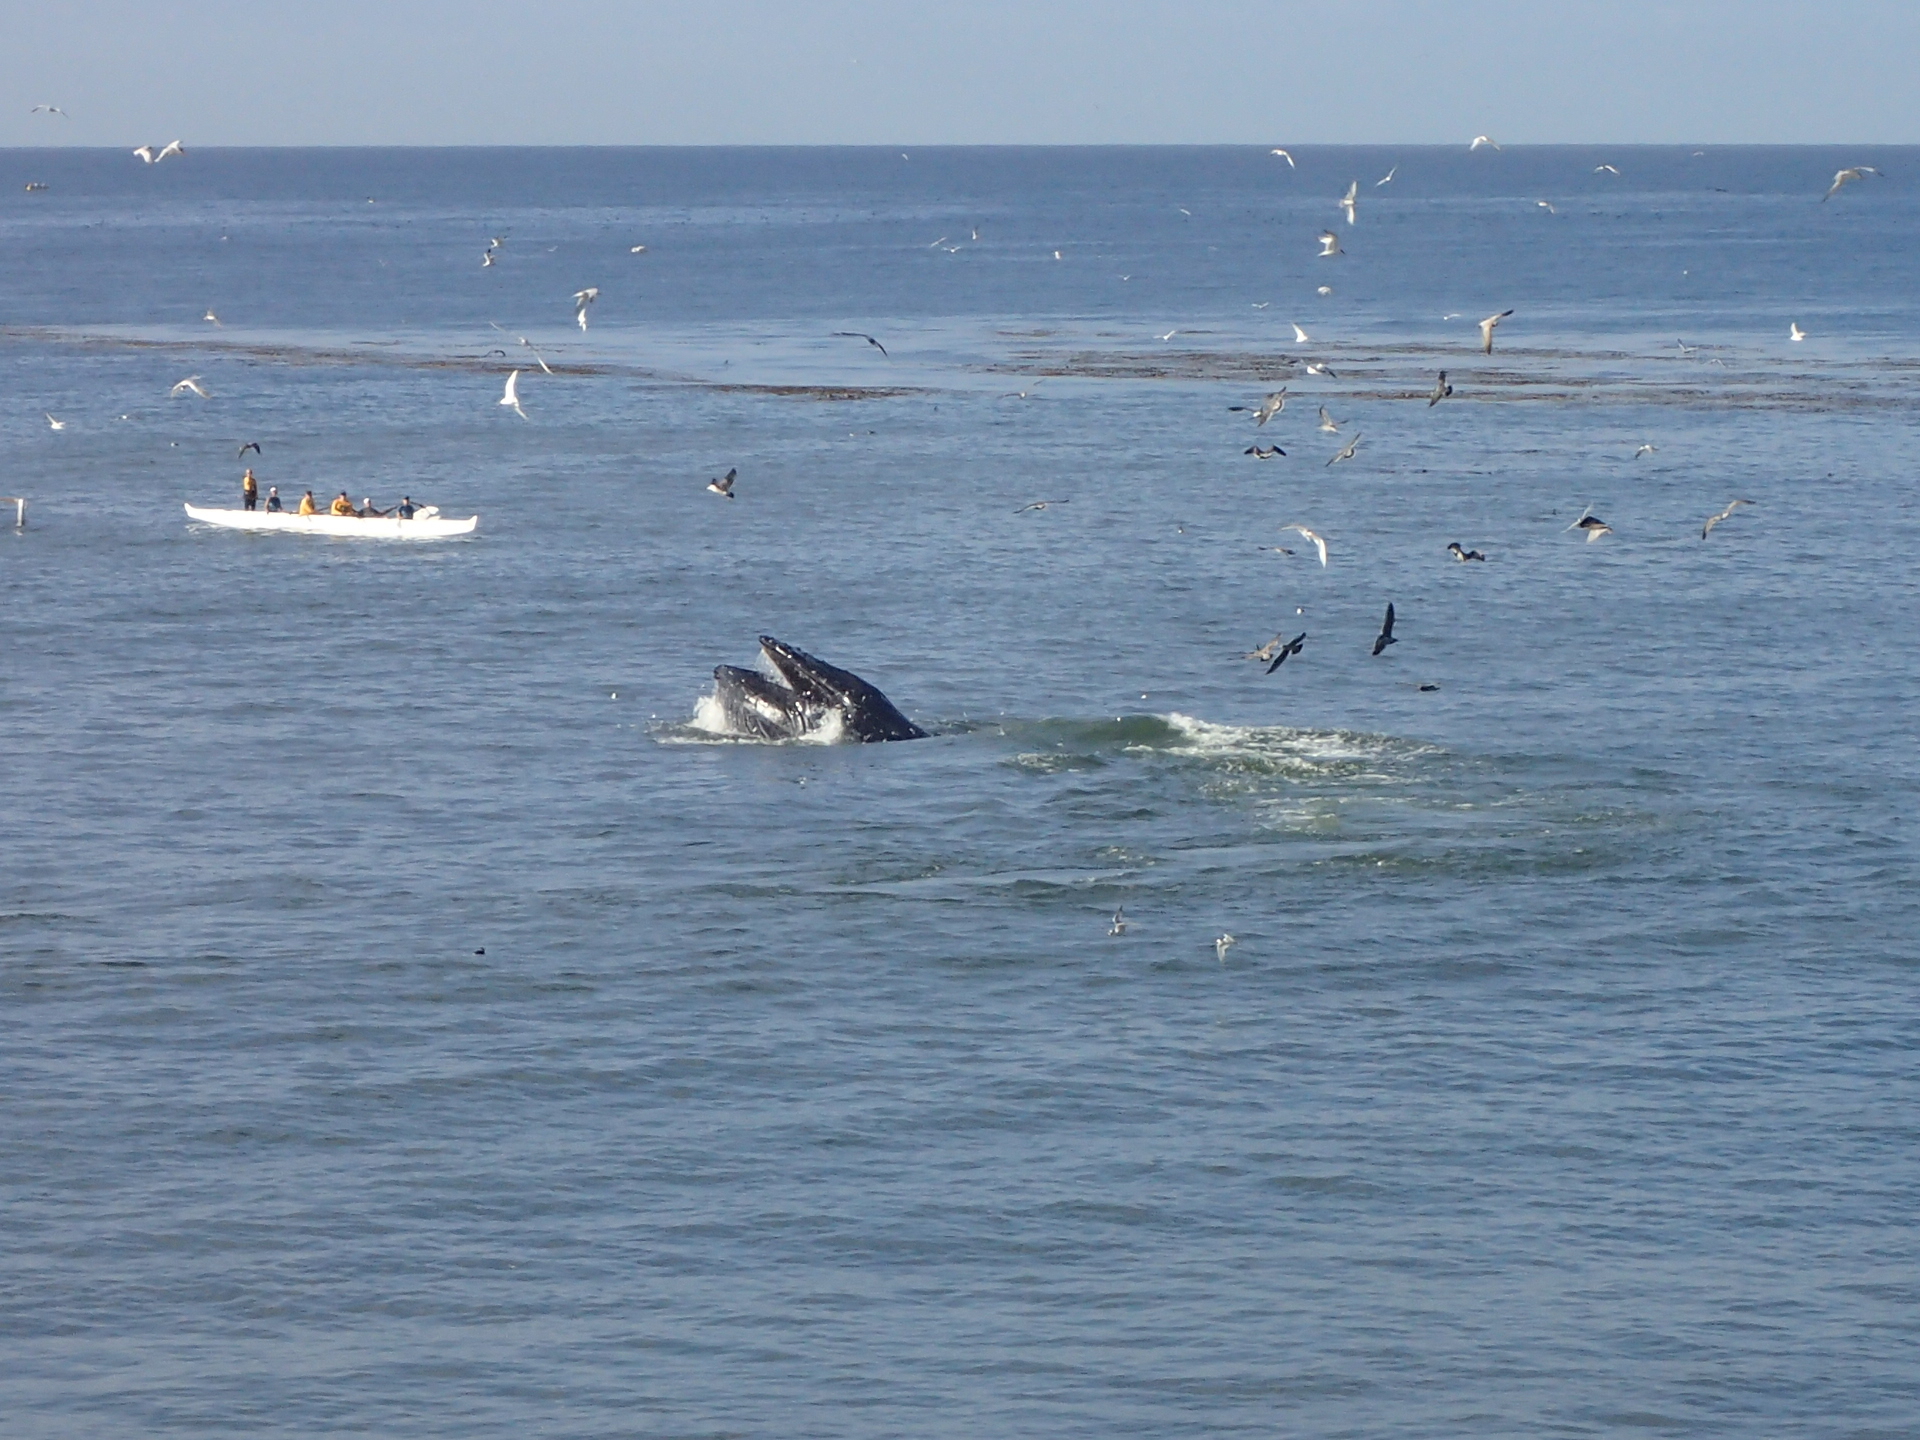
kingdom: Animalia
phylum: Chordata
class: Mammalia
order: Cetacea
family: Balaenopteridae
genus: Megaptera
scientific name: Megaptera novaeangliae
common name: Humpback whale
